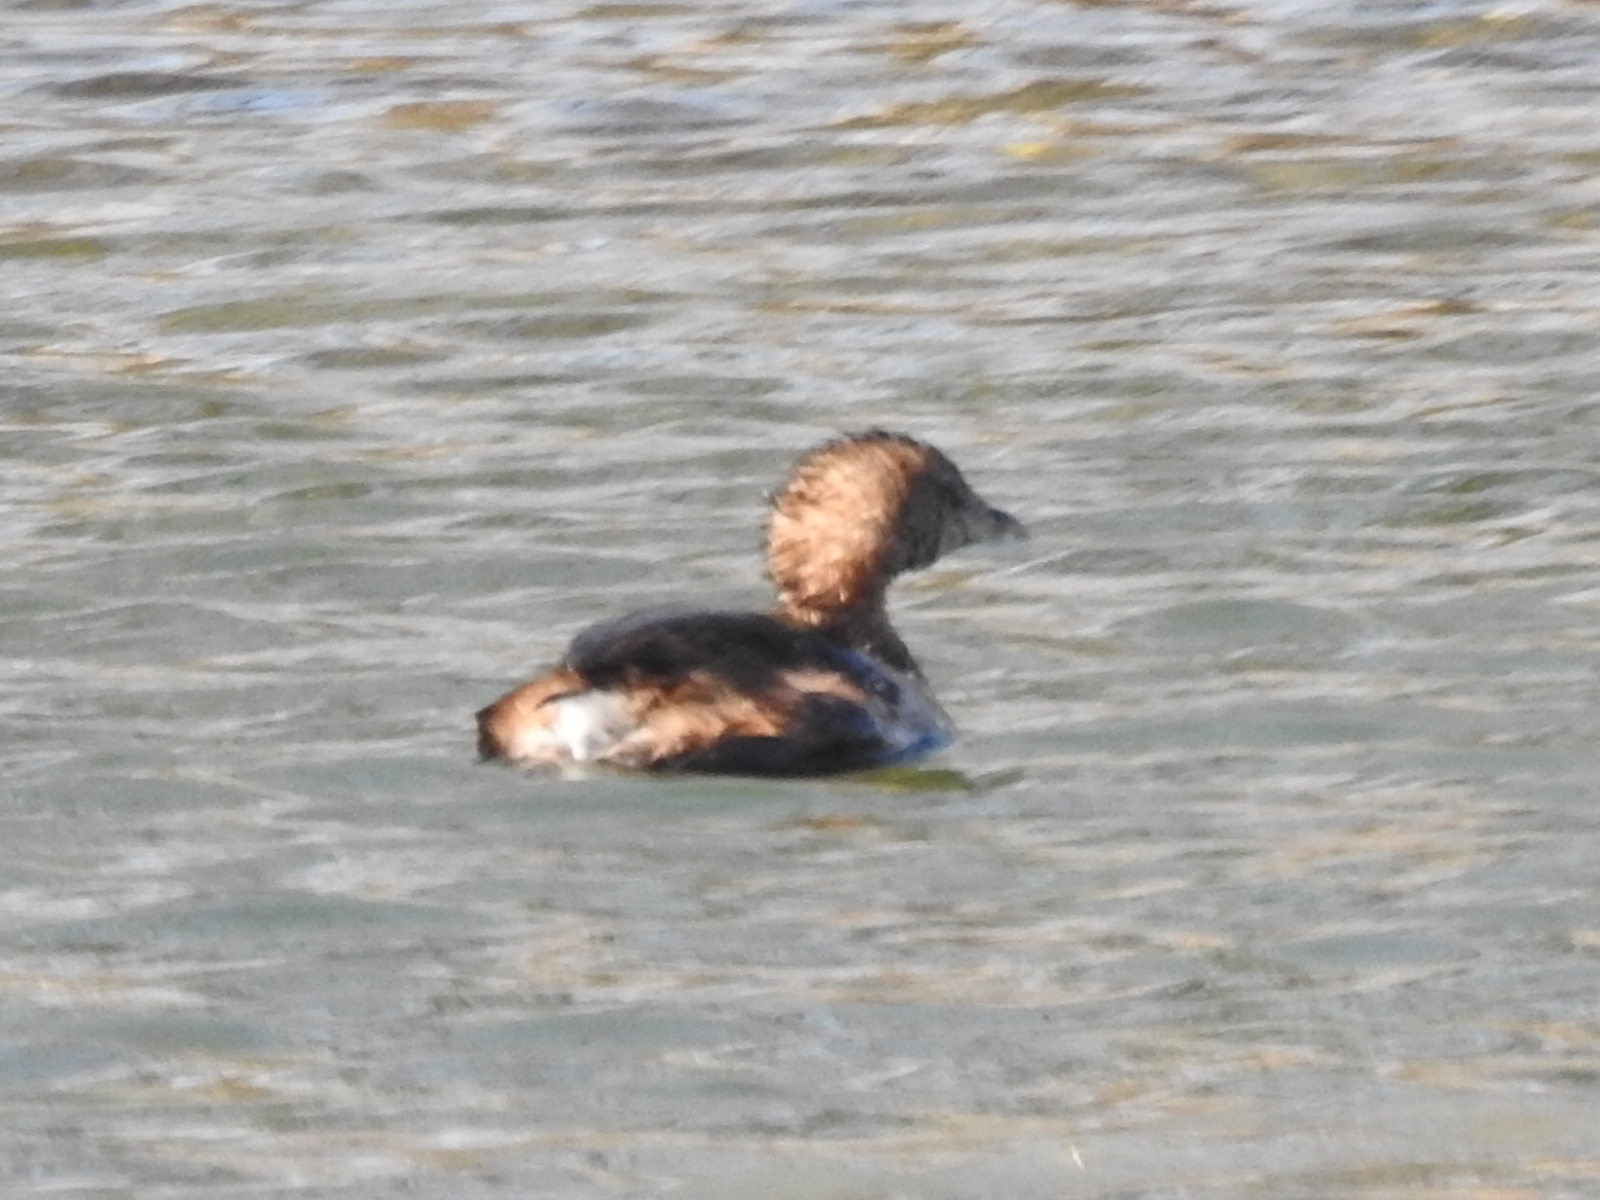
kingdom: Animalia
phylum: Chordata
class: Aves
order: Podicipediformes
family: Podicipedidae
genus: Podilymbus
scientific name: Podilymbus podiceps
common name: Pied-billed grebe
